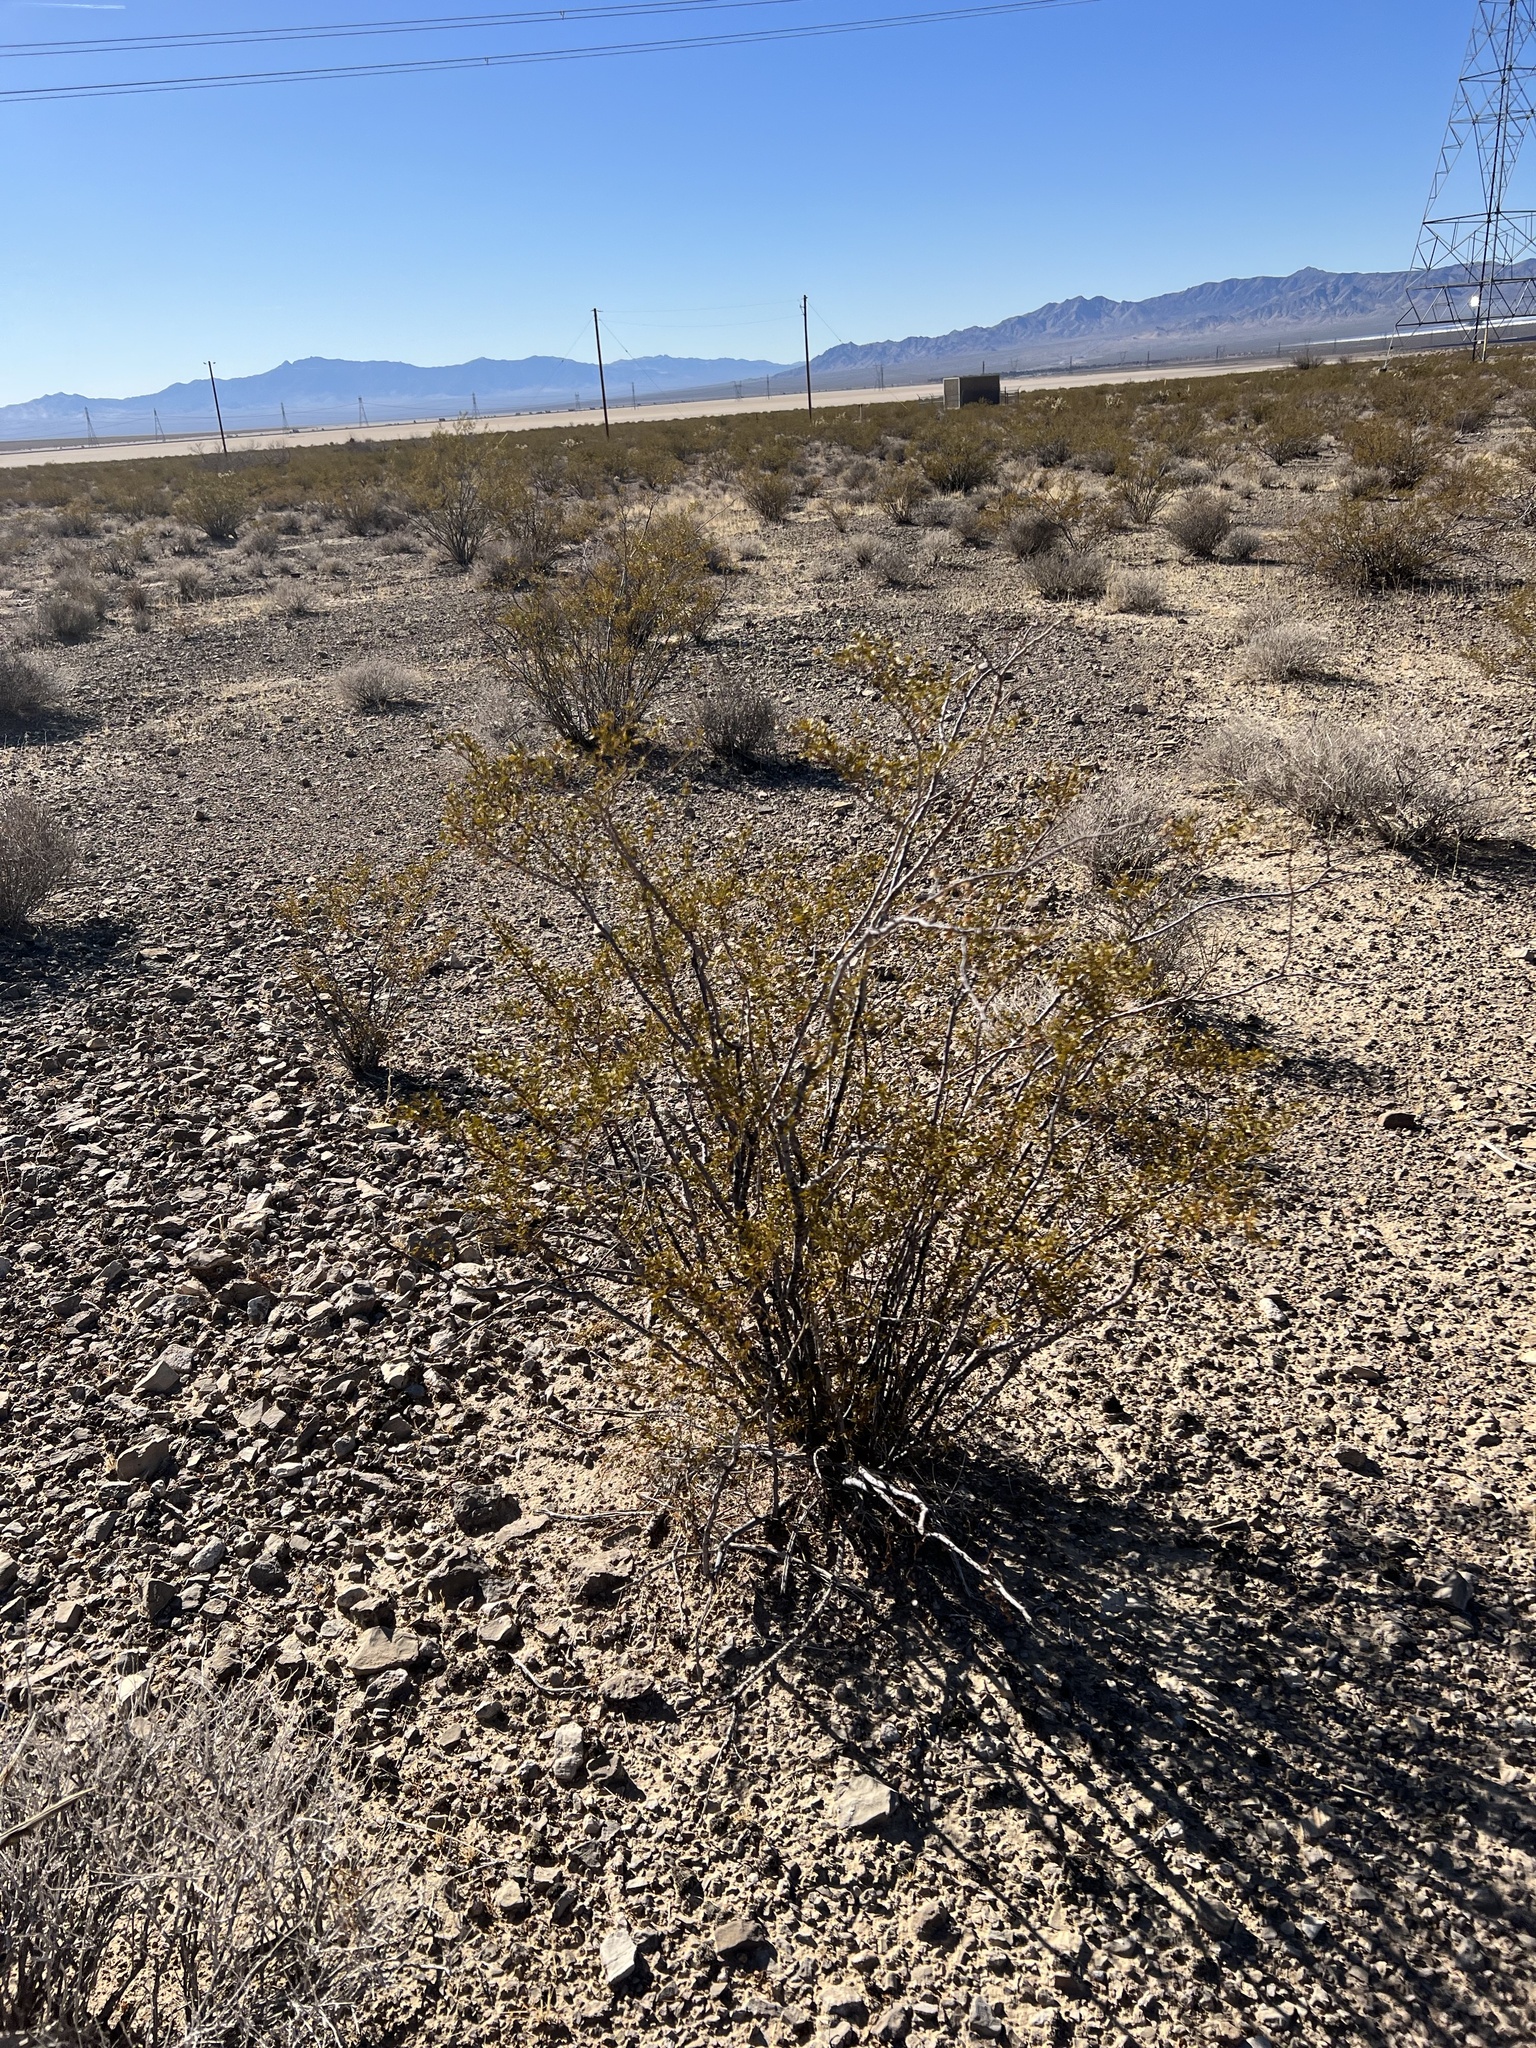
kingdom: Plantae
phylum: Tracheophyta
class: Magnoliopsida
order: Zygophyllales
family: Zygophyllaceae
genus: Larrea
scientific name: Larrea tridentata
